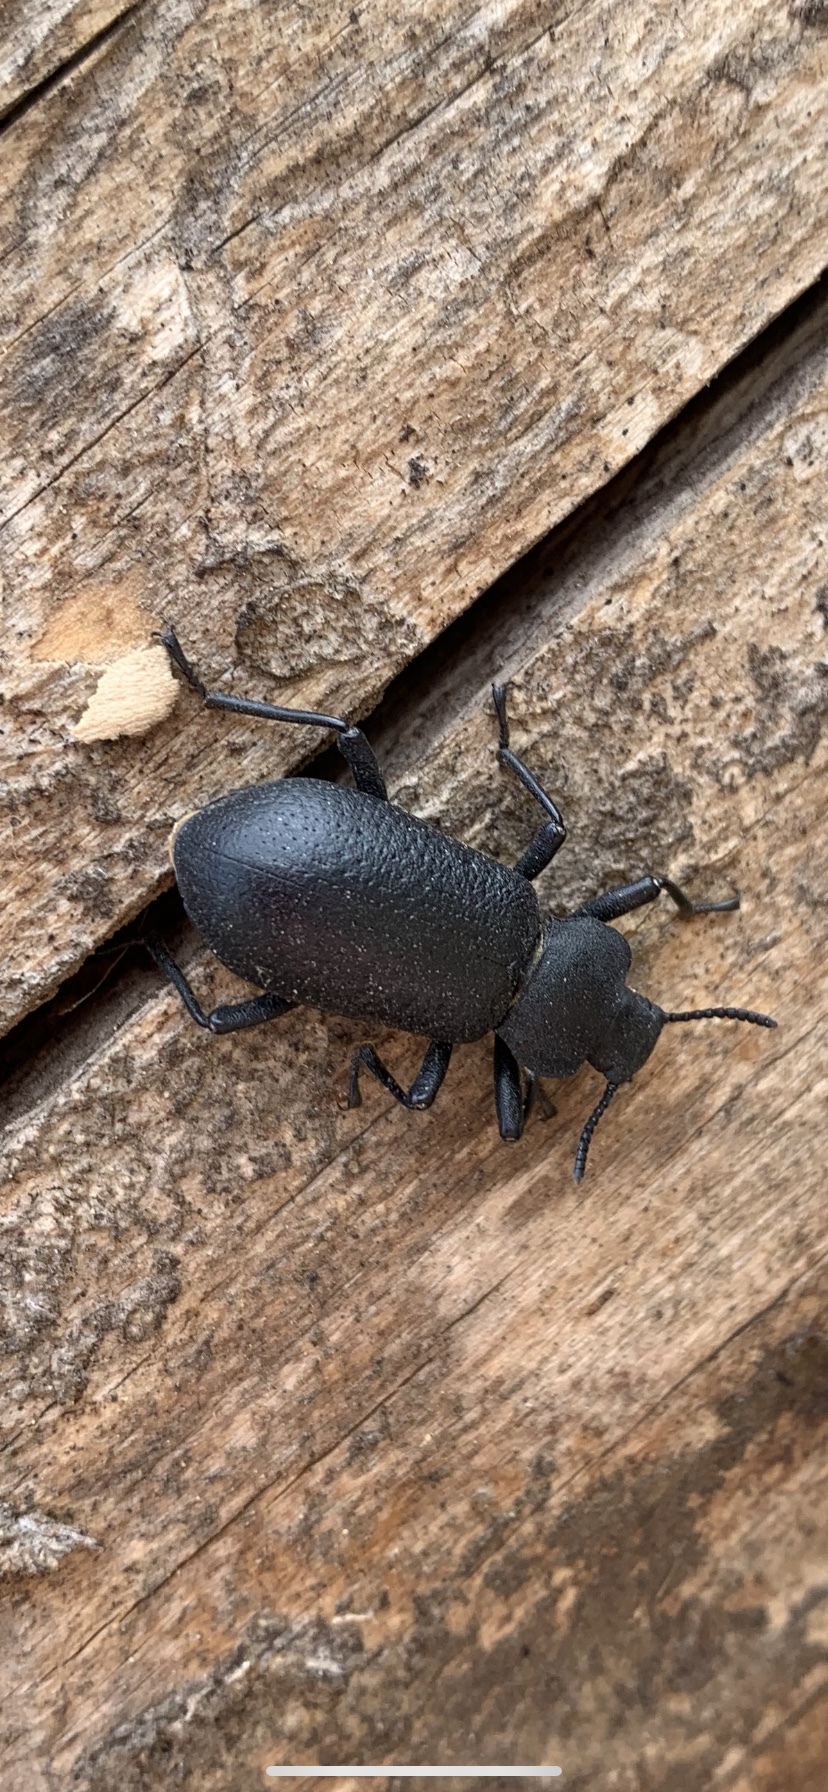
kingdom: Animalia
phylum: Arthropoda
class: Insecta
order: Coleoptera
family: Tenebrionidae
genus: Iphthiminus
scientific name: Iphthiminus serratus
